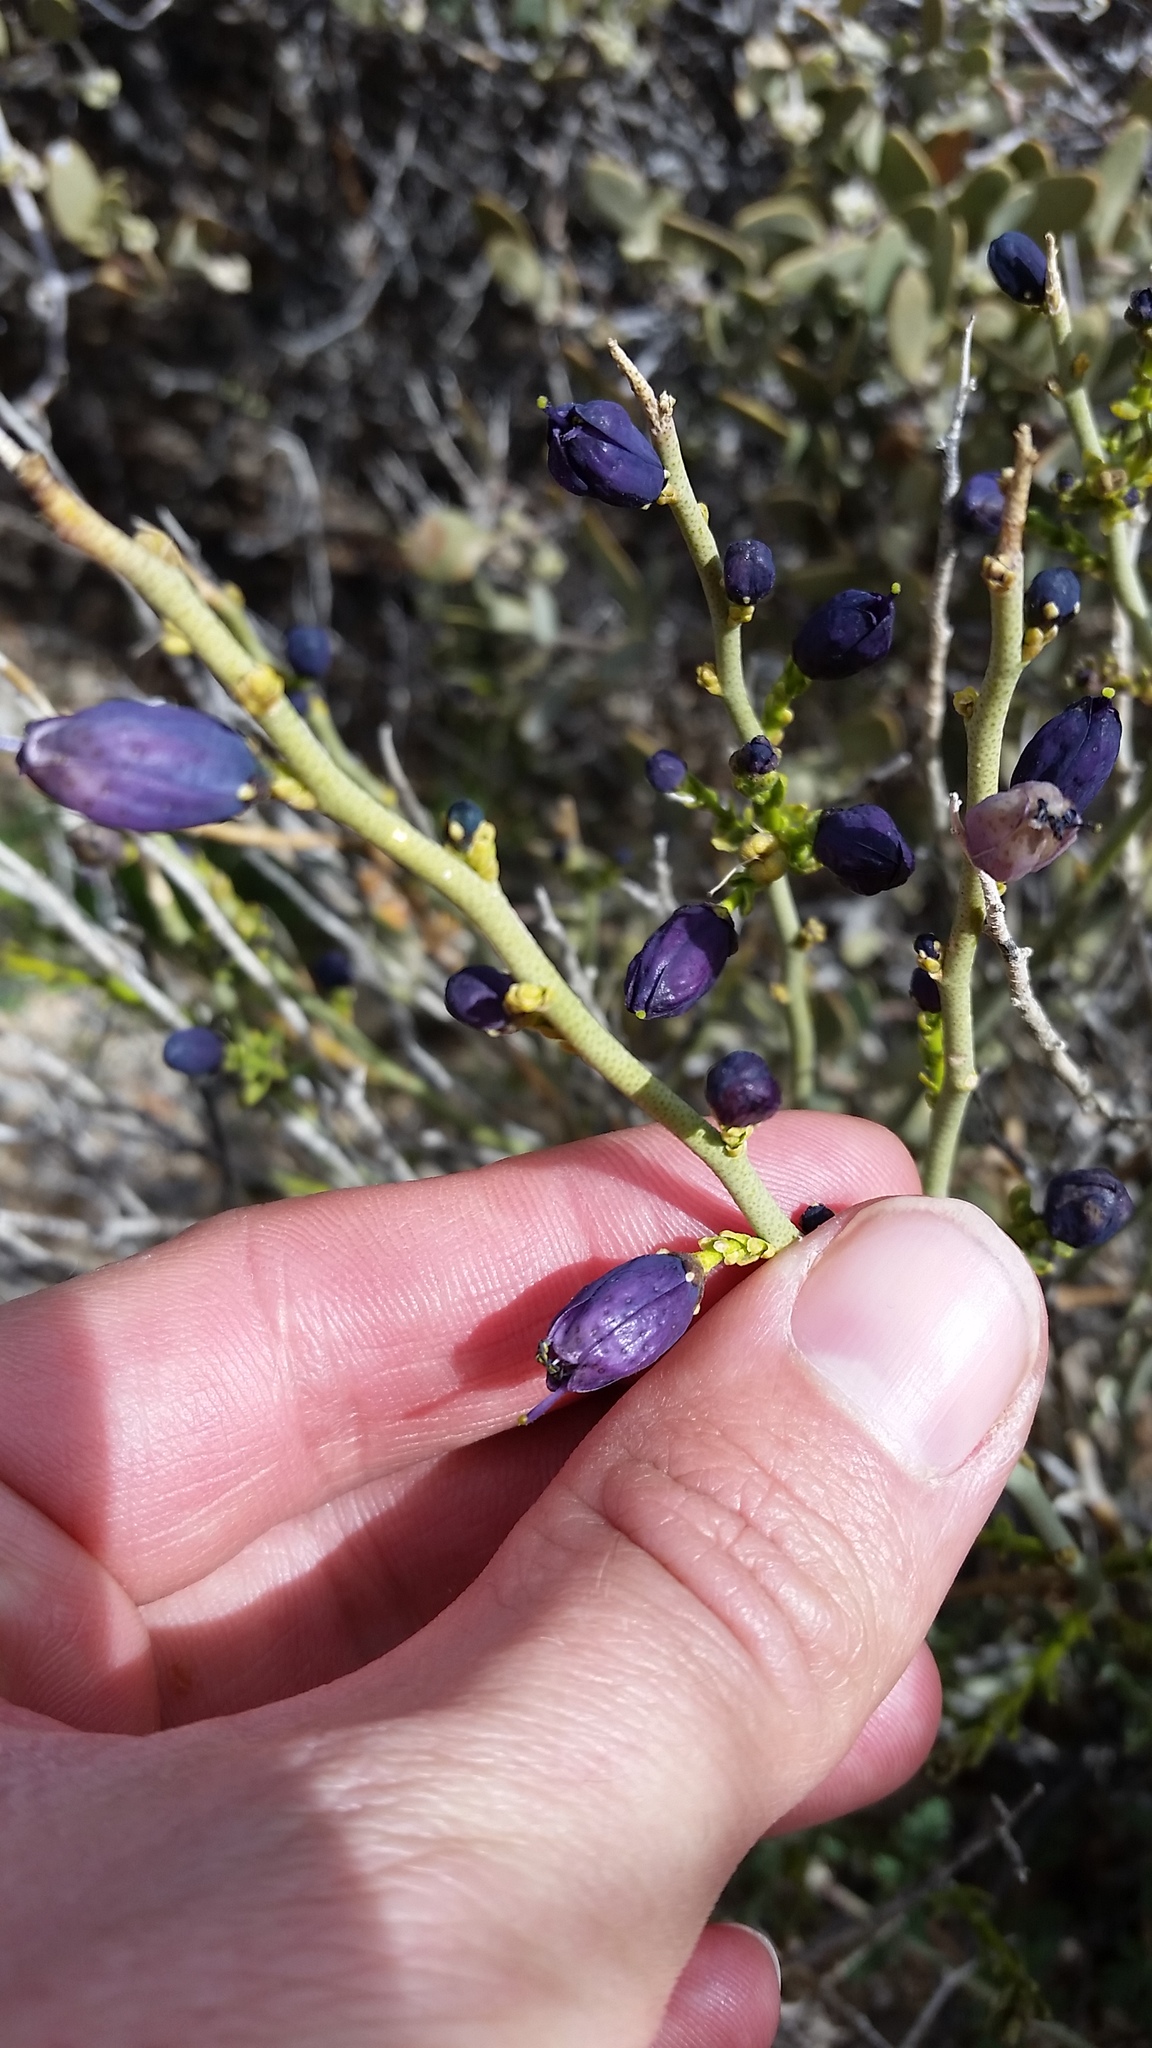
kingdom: Plantae
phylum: Tracheophyta
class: Magnoliopsida
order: Sapindales
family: Rutaceae
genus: Thamnosma
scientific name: Thamnosma montana
